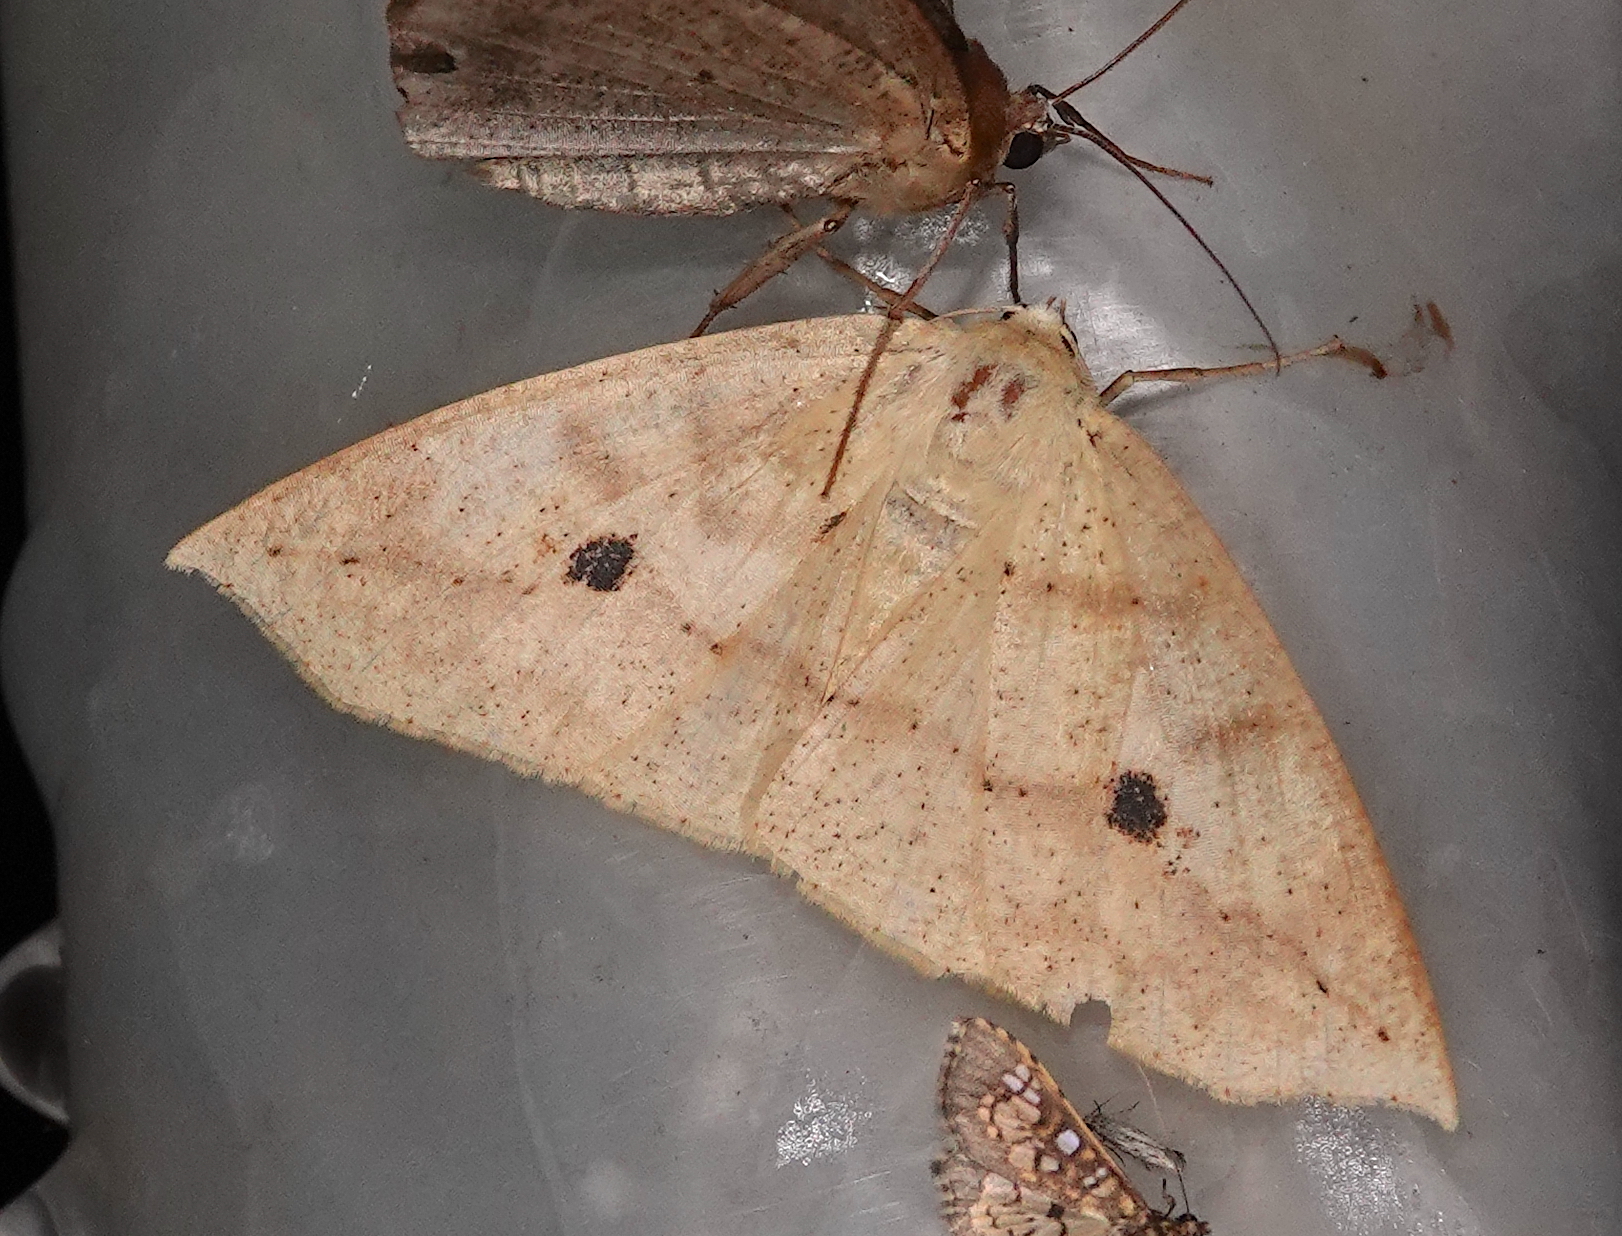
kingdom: Animalia
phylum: Arthropoda
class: Insecta
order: Lepidoptera
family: Geometridae
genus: Cirsodes
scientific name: Cirsodes acuminata
